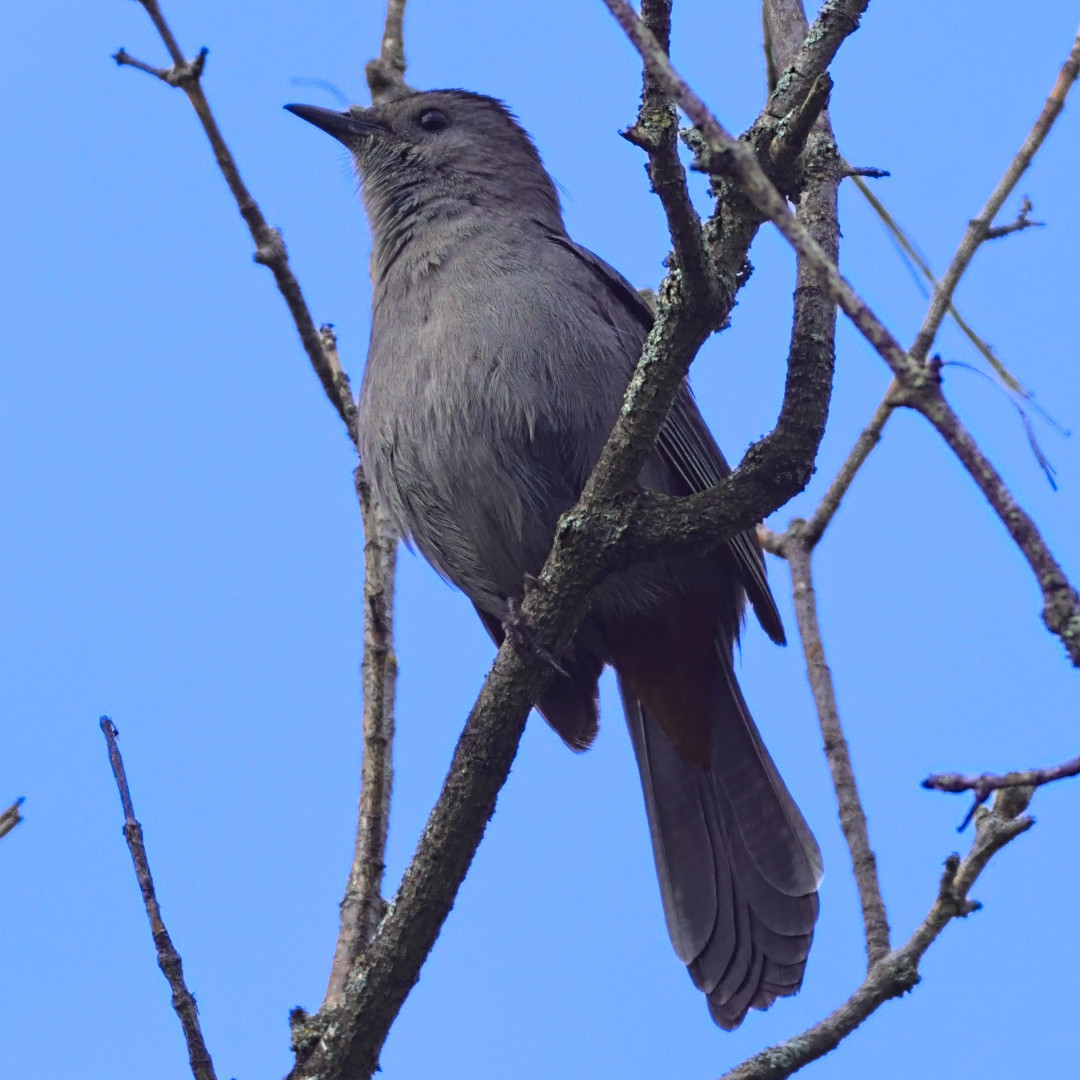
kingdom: Animalia
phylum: Chordata
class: Aves
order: Passeriformes
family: Mimidae
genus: Dumetella
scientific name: Dumetella carolinensis
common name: Gray catbird
